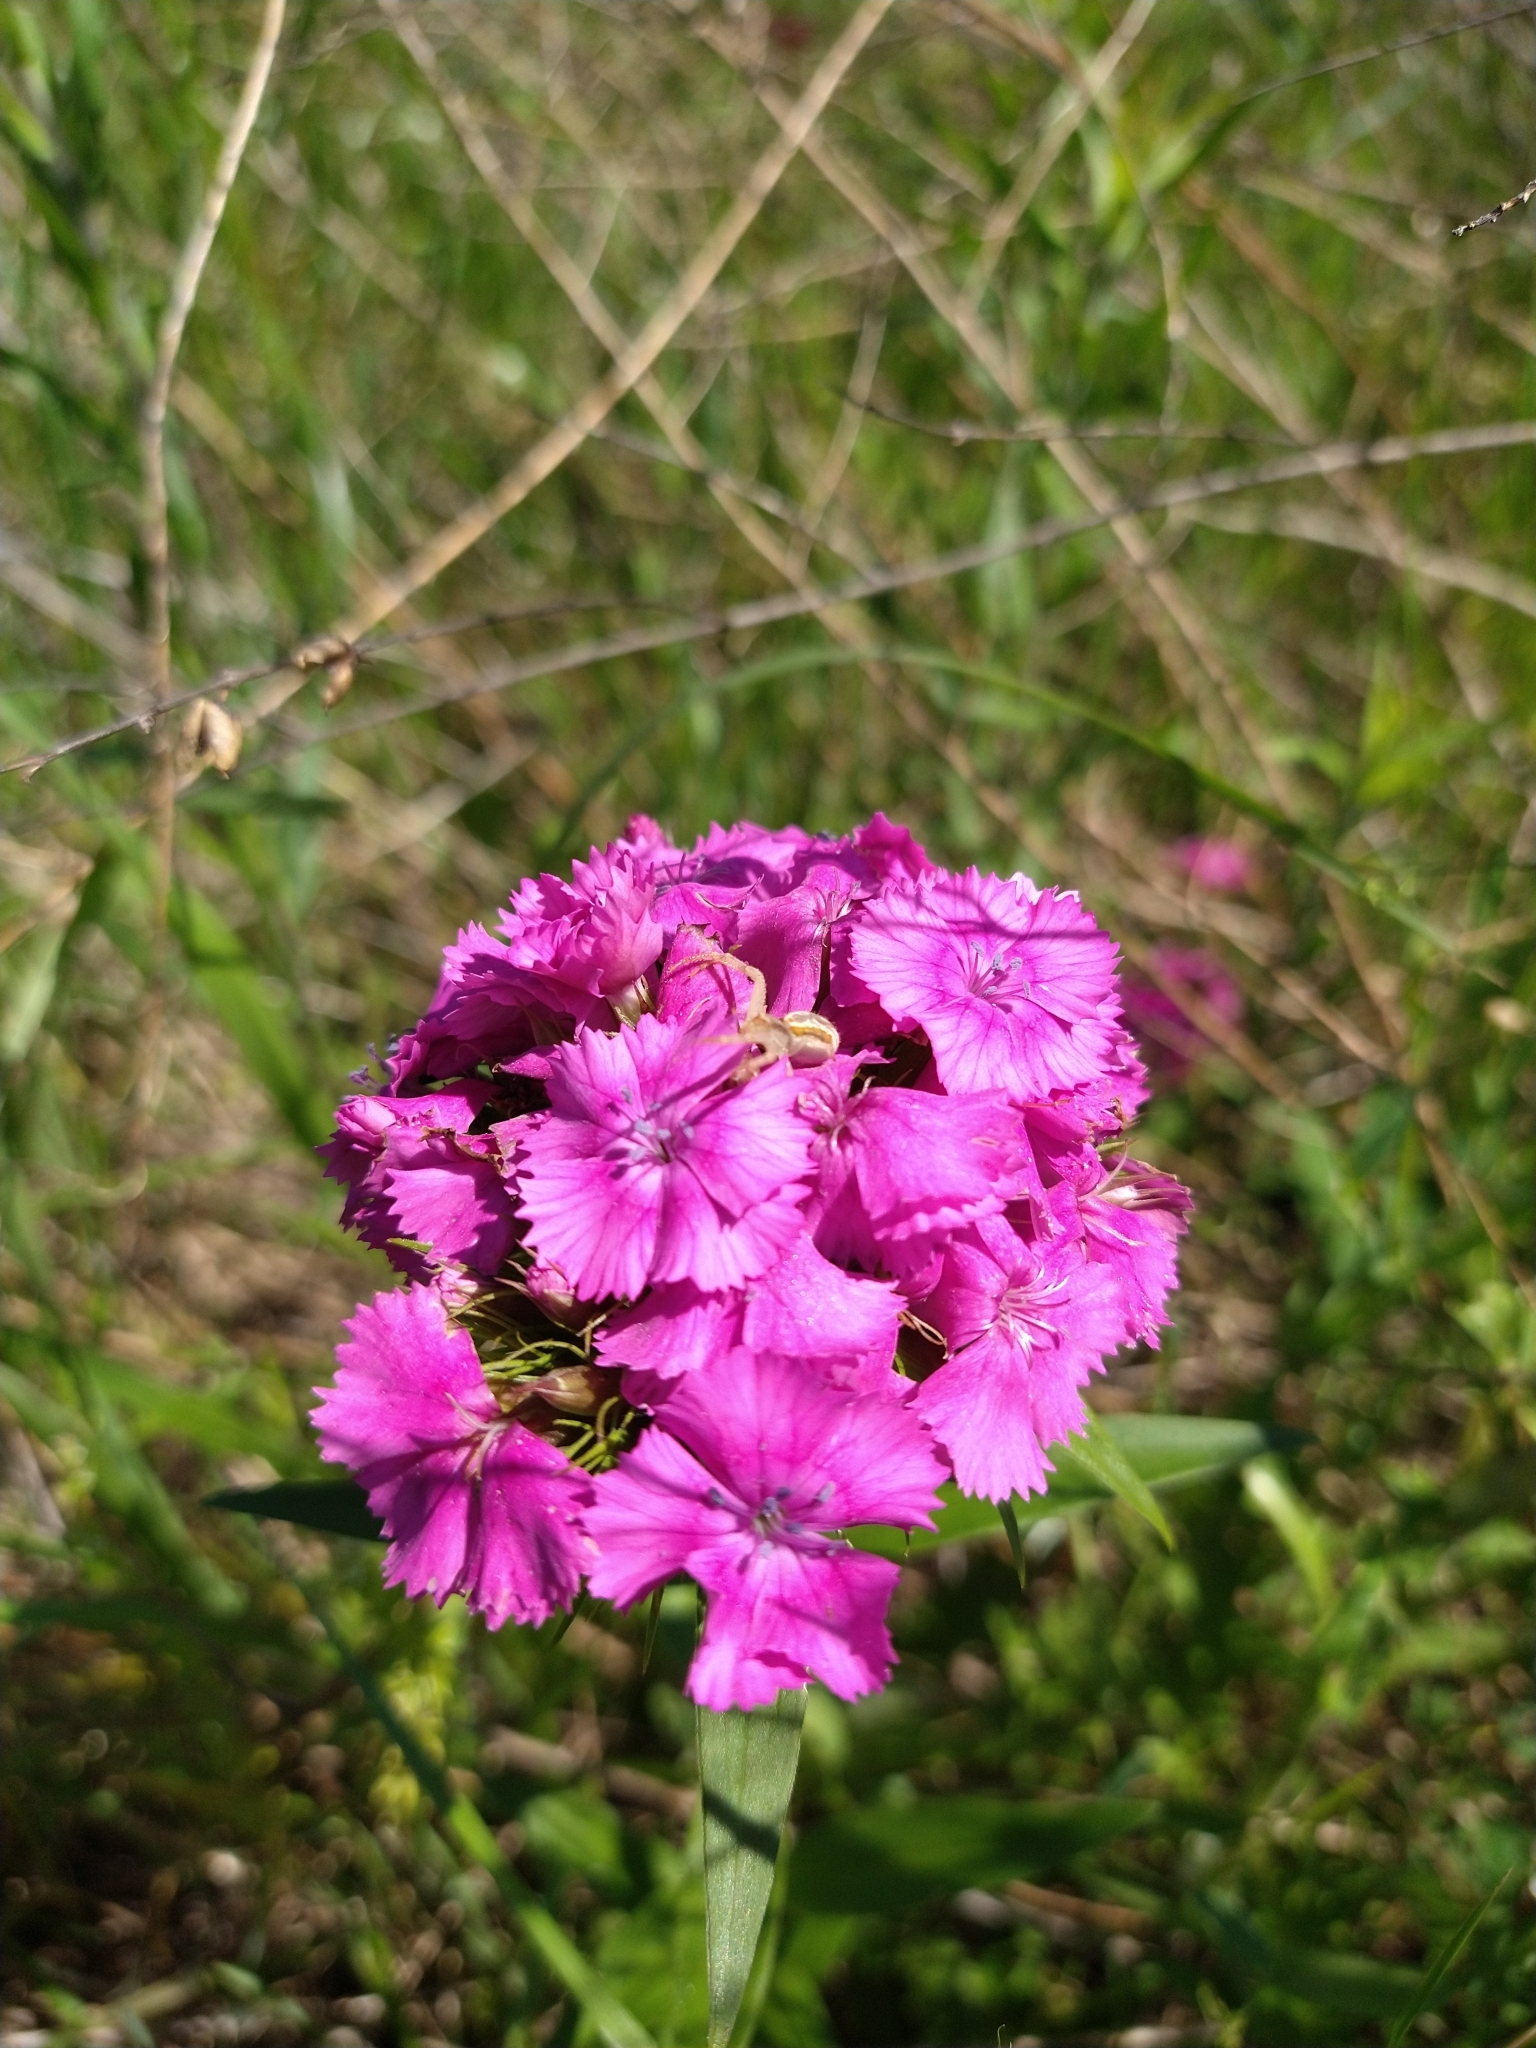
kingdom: Plantae
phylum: Tracheophyta
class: Magnoliopsida
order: Caryophyllales
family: Caryophyllaceae
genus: Dianthus
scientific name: Dianthus barbatus
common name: Sweet-william
